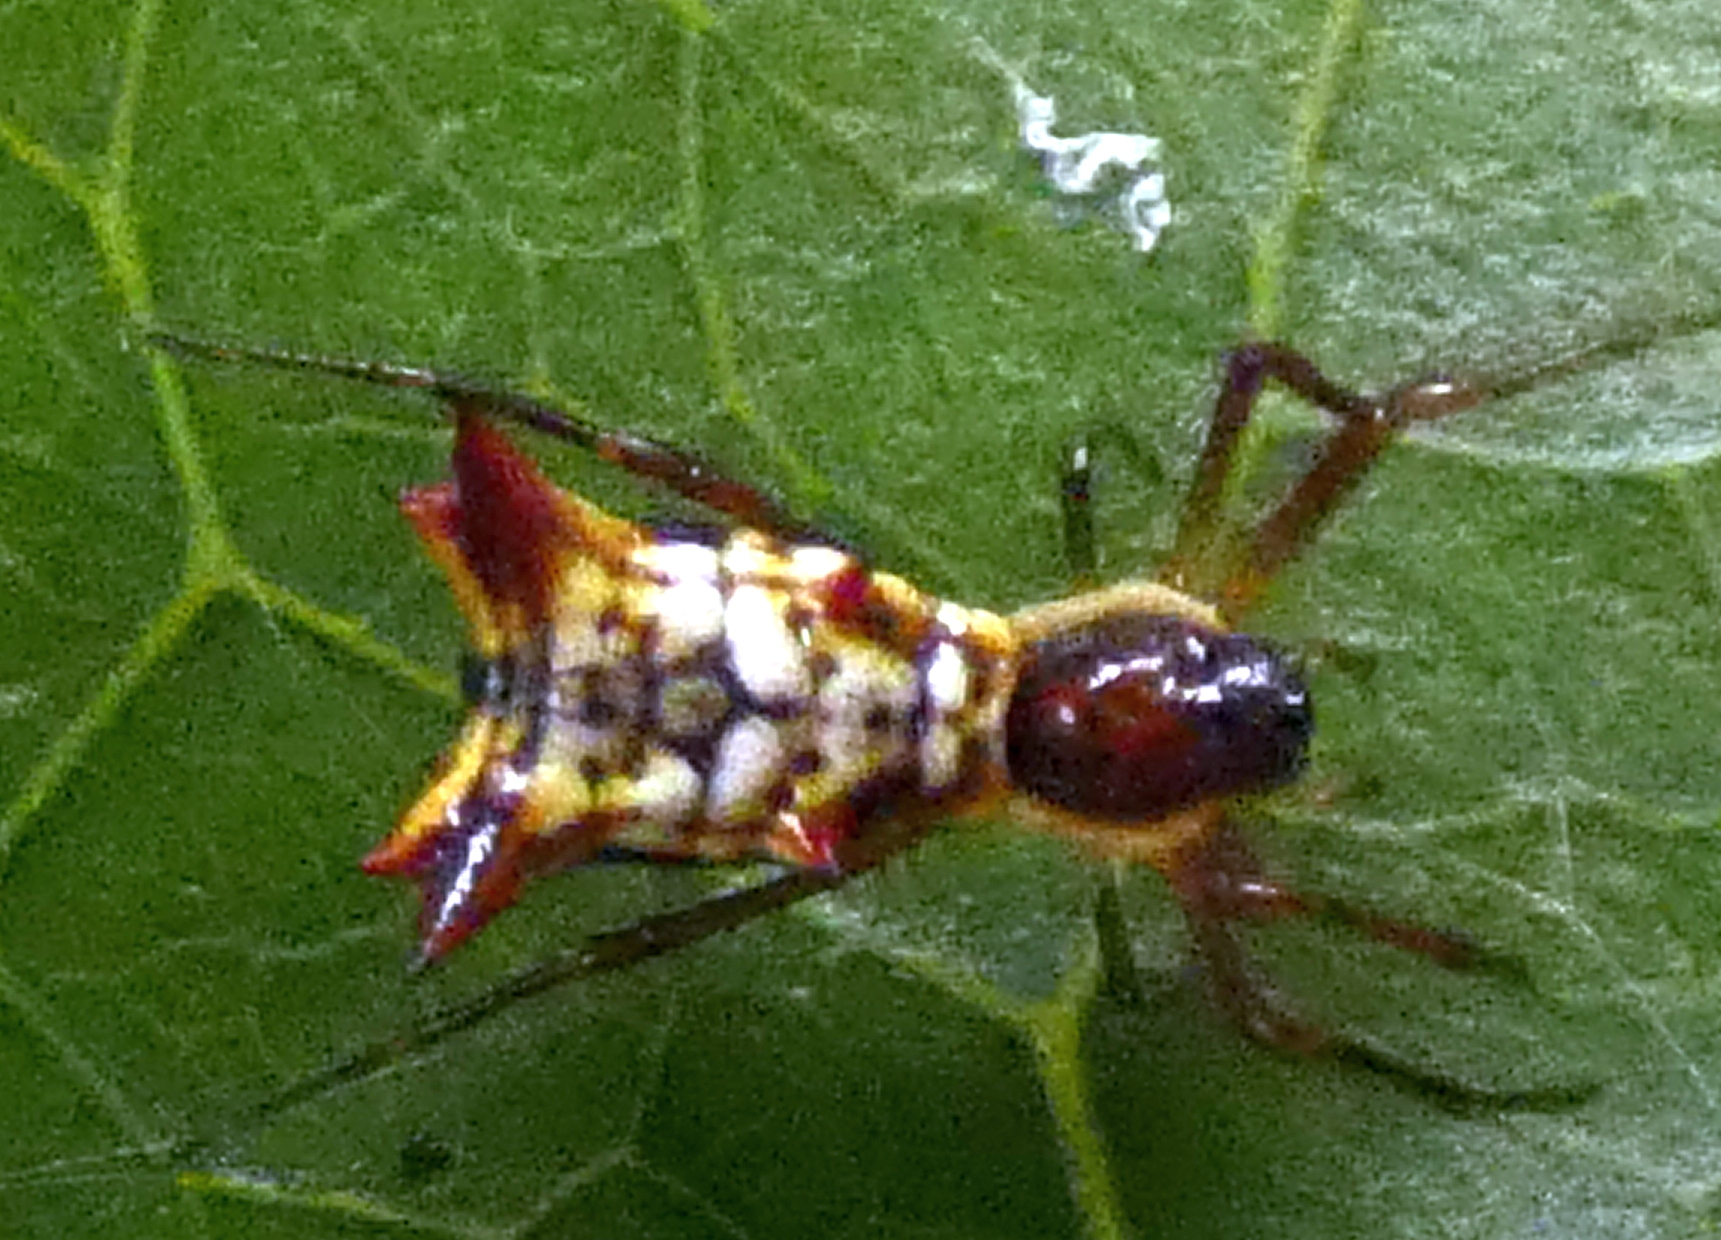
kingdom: Animalia
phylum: Arthropoda
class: Arachnida
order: Araneae
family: Araneidae
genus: Micrathena
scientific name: Micrathena fissispina
